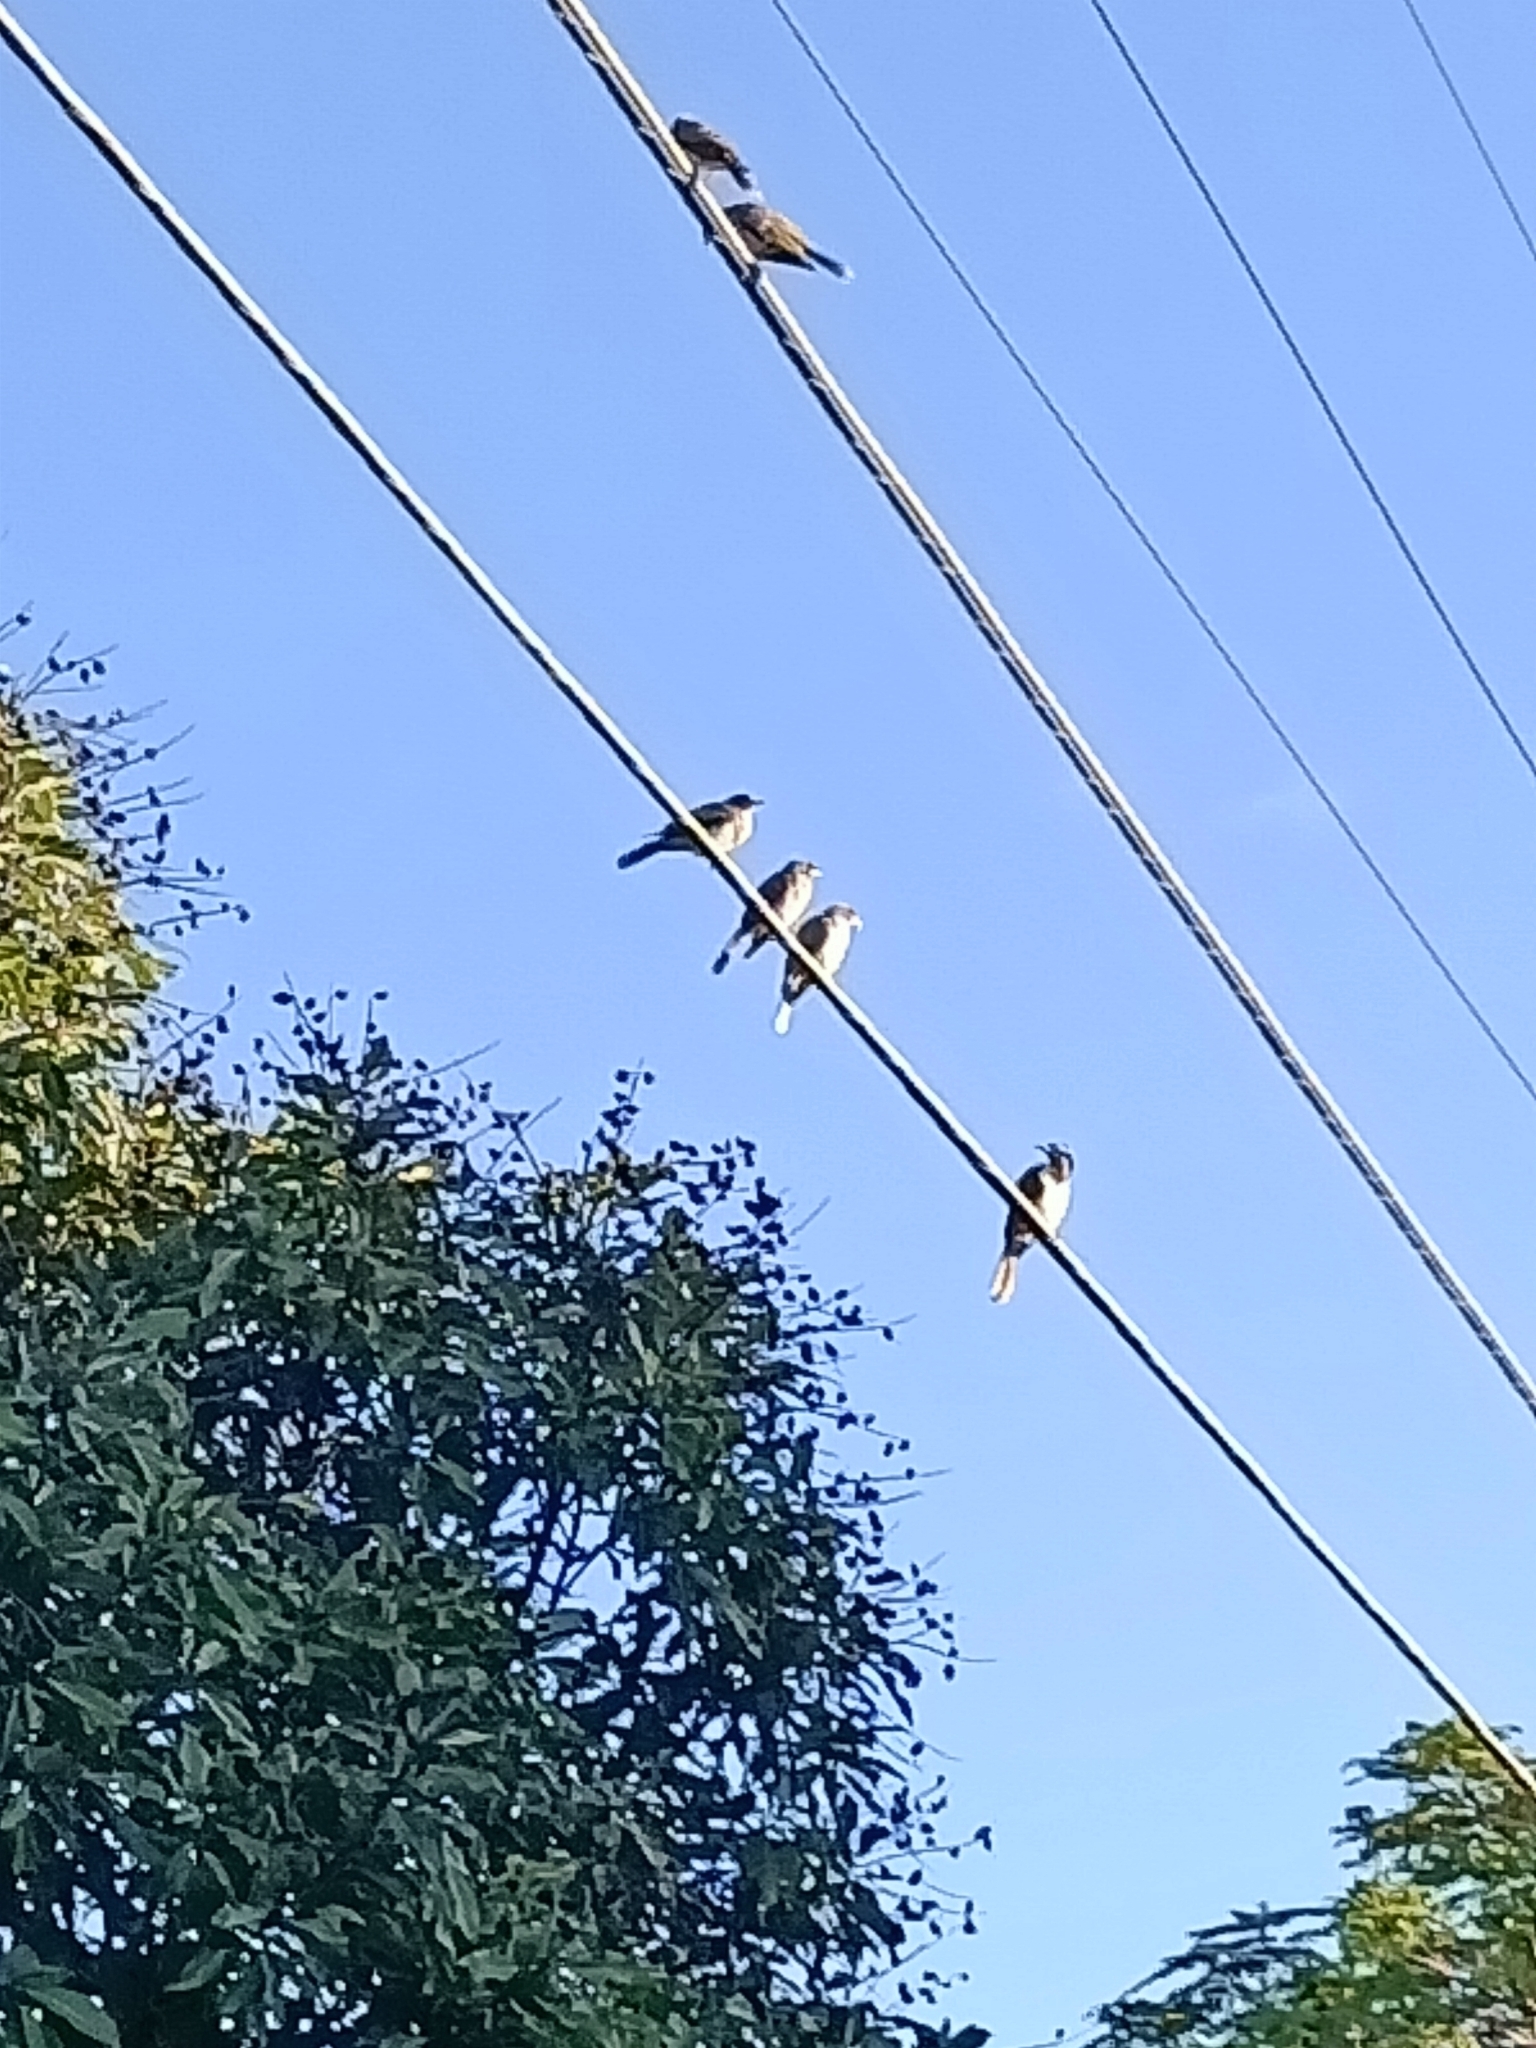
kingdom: Animalia
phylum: Chordata
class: Aves
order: Passeriformes
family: Meliphagidae
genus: Entomyzon
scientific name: Entomyzon cyanotis
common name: Blue-faced honeyeater
